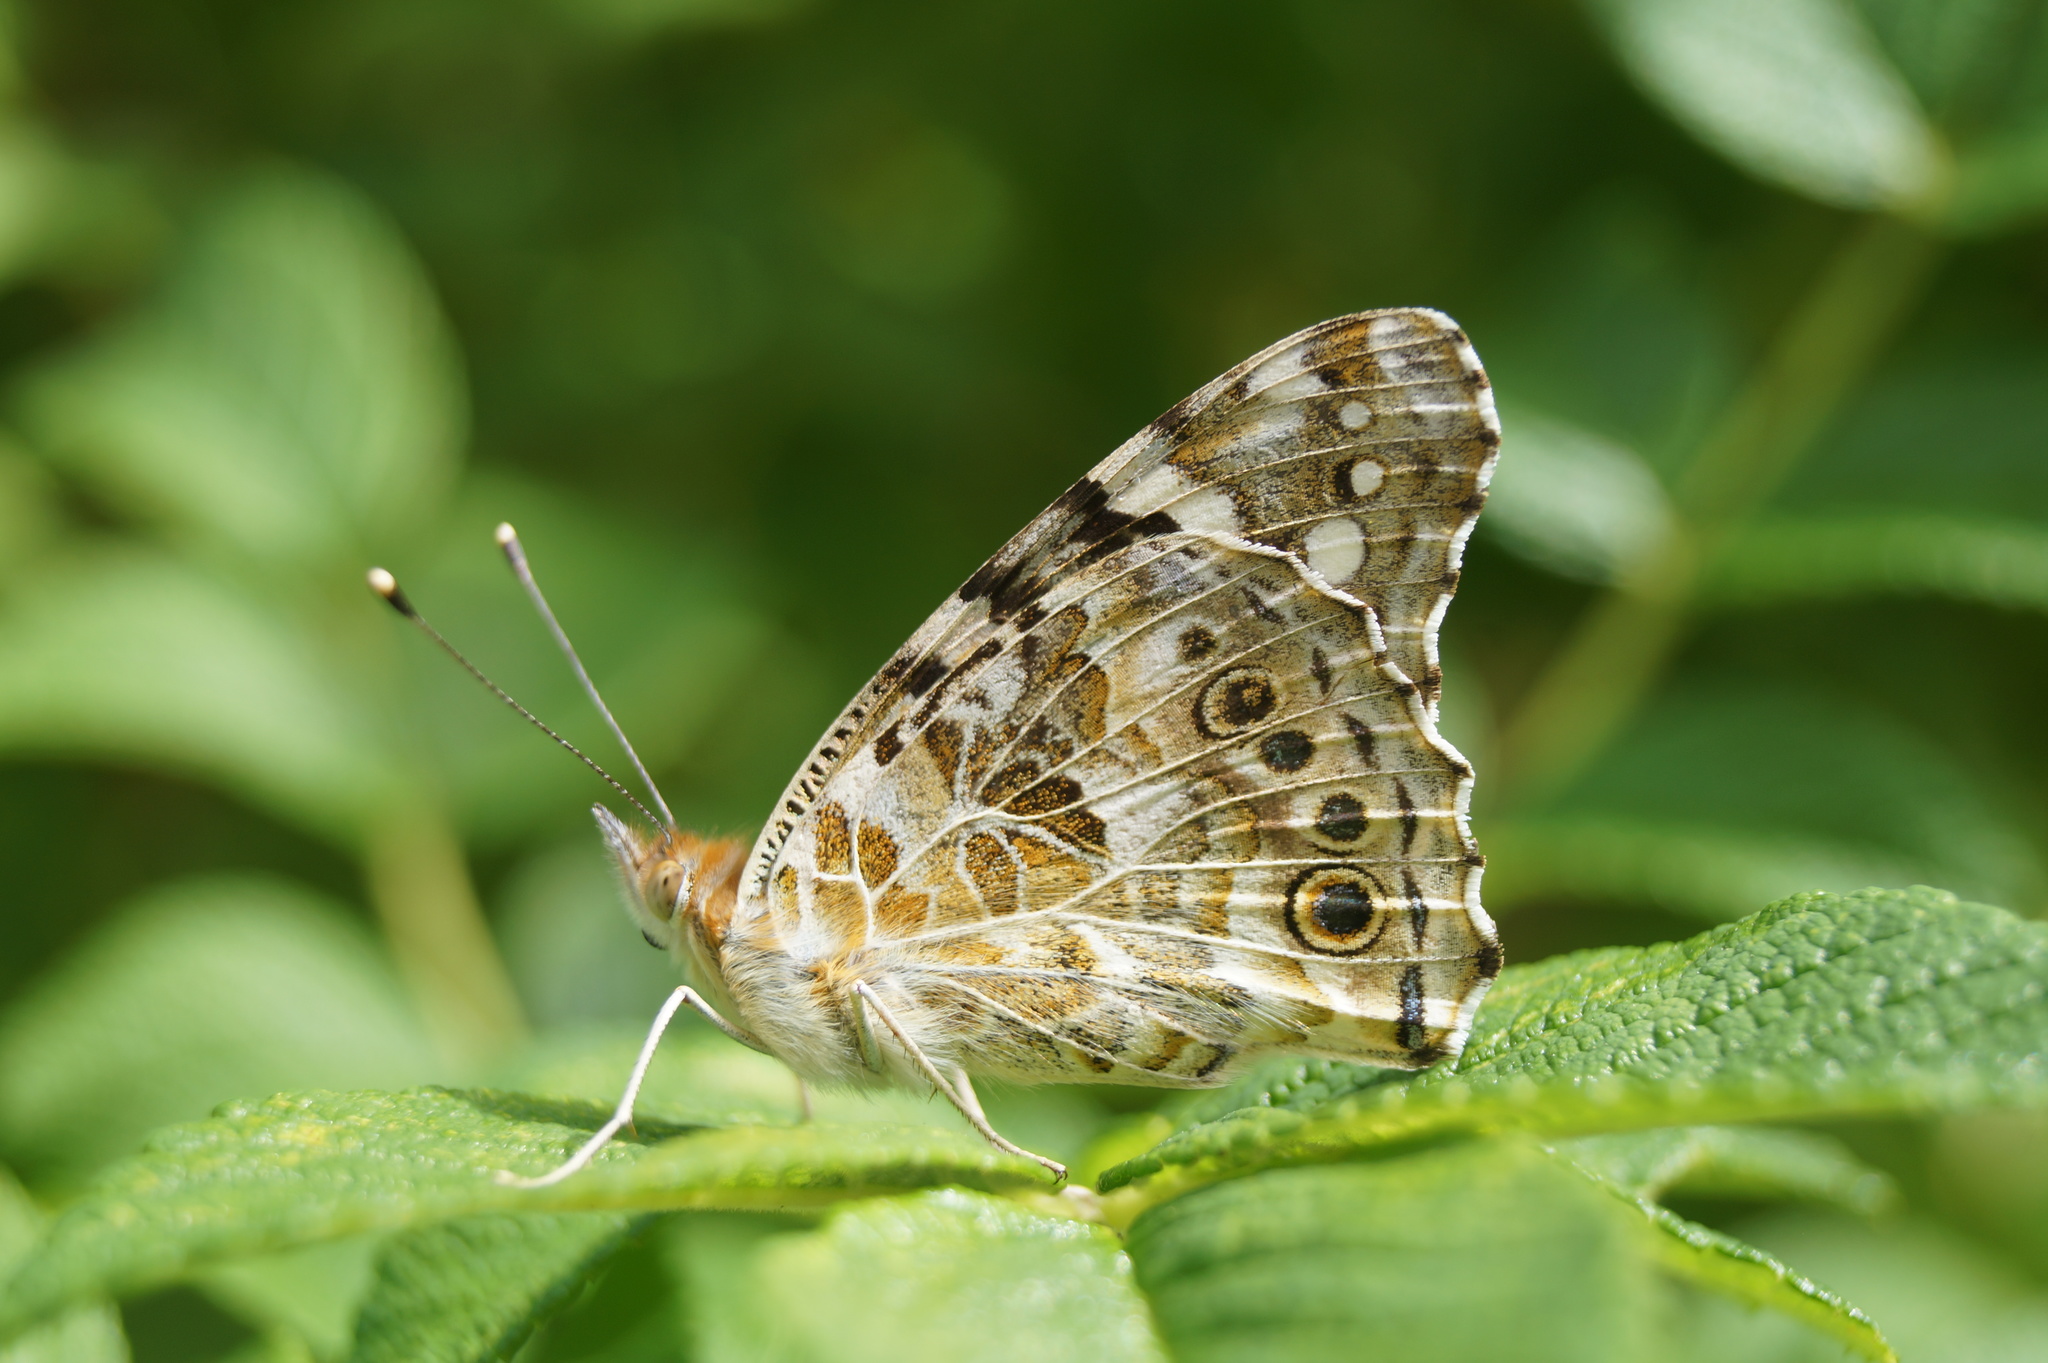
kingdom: Animalia
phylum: Arthropoda
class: Insecta
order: Lepidoptera
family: Nymphalidae
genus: Vanessa
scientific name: Vanessa cardui
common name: Painted lady
